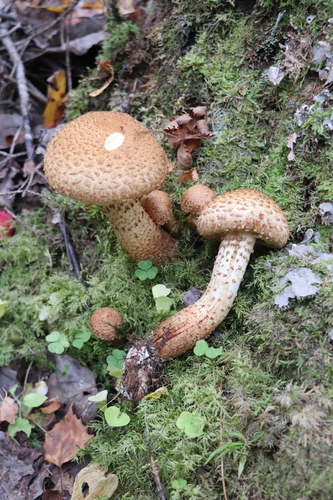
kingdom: Fungi
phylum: Basidiomycota
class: Agaricomycetes
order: Agaricales
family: Strophariaceae
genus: Pholiota
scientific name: Pholiota squarrosa
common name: Shaggy pholiota
